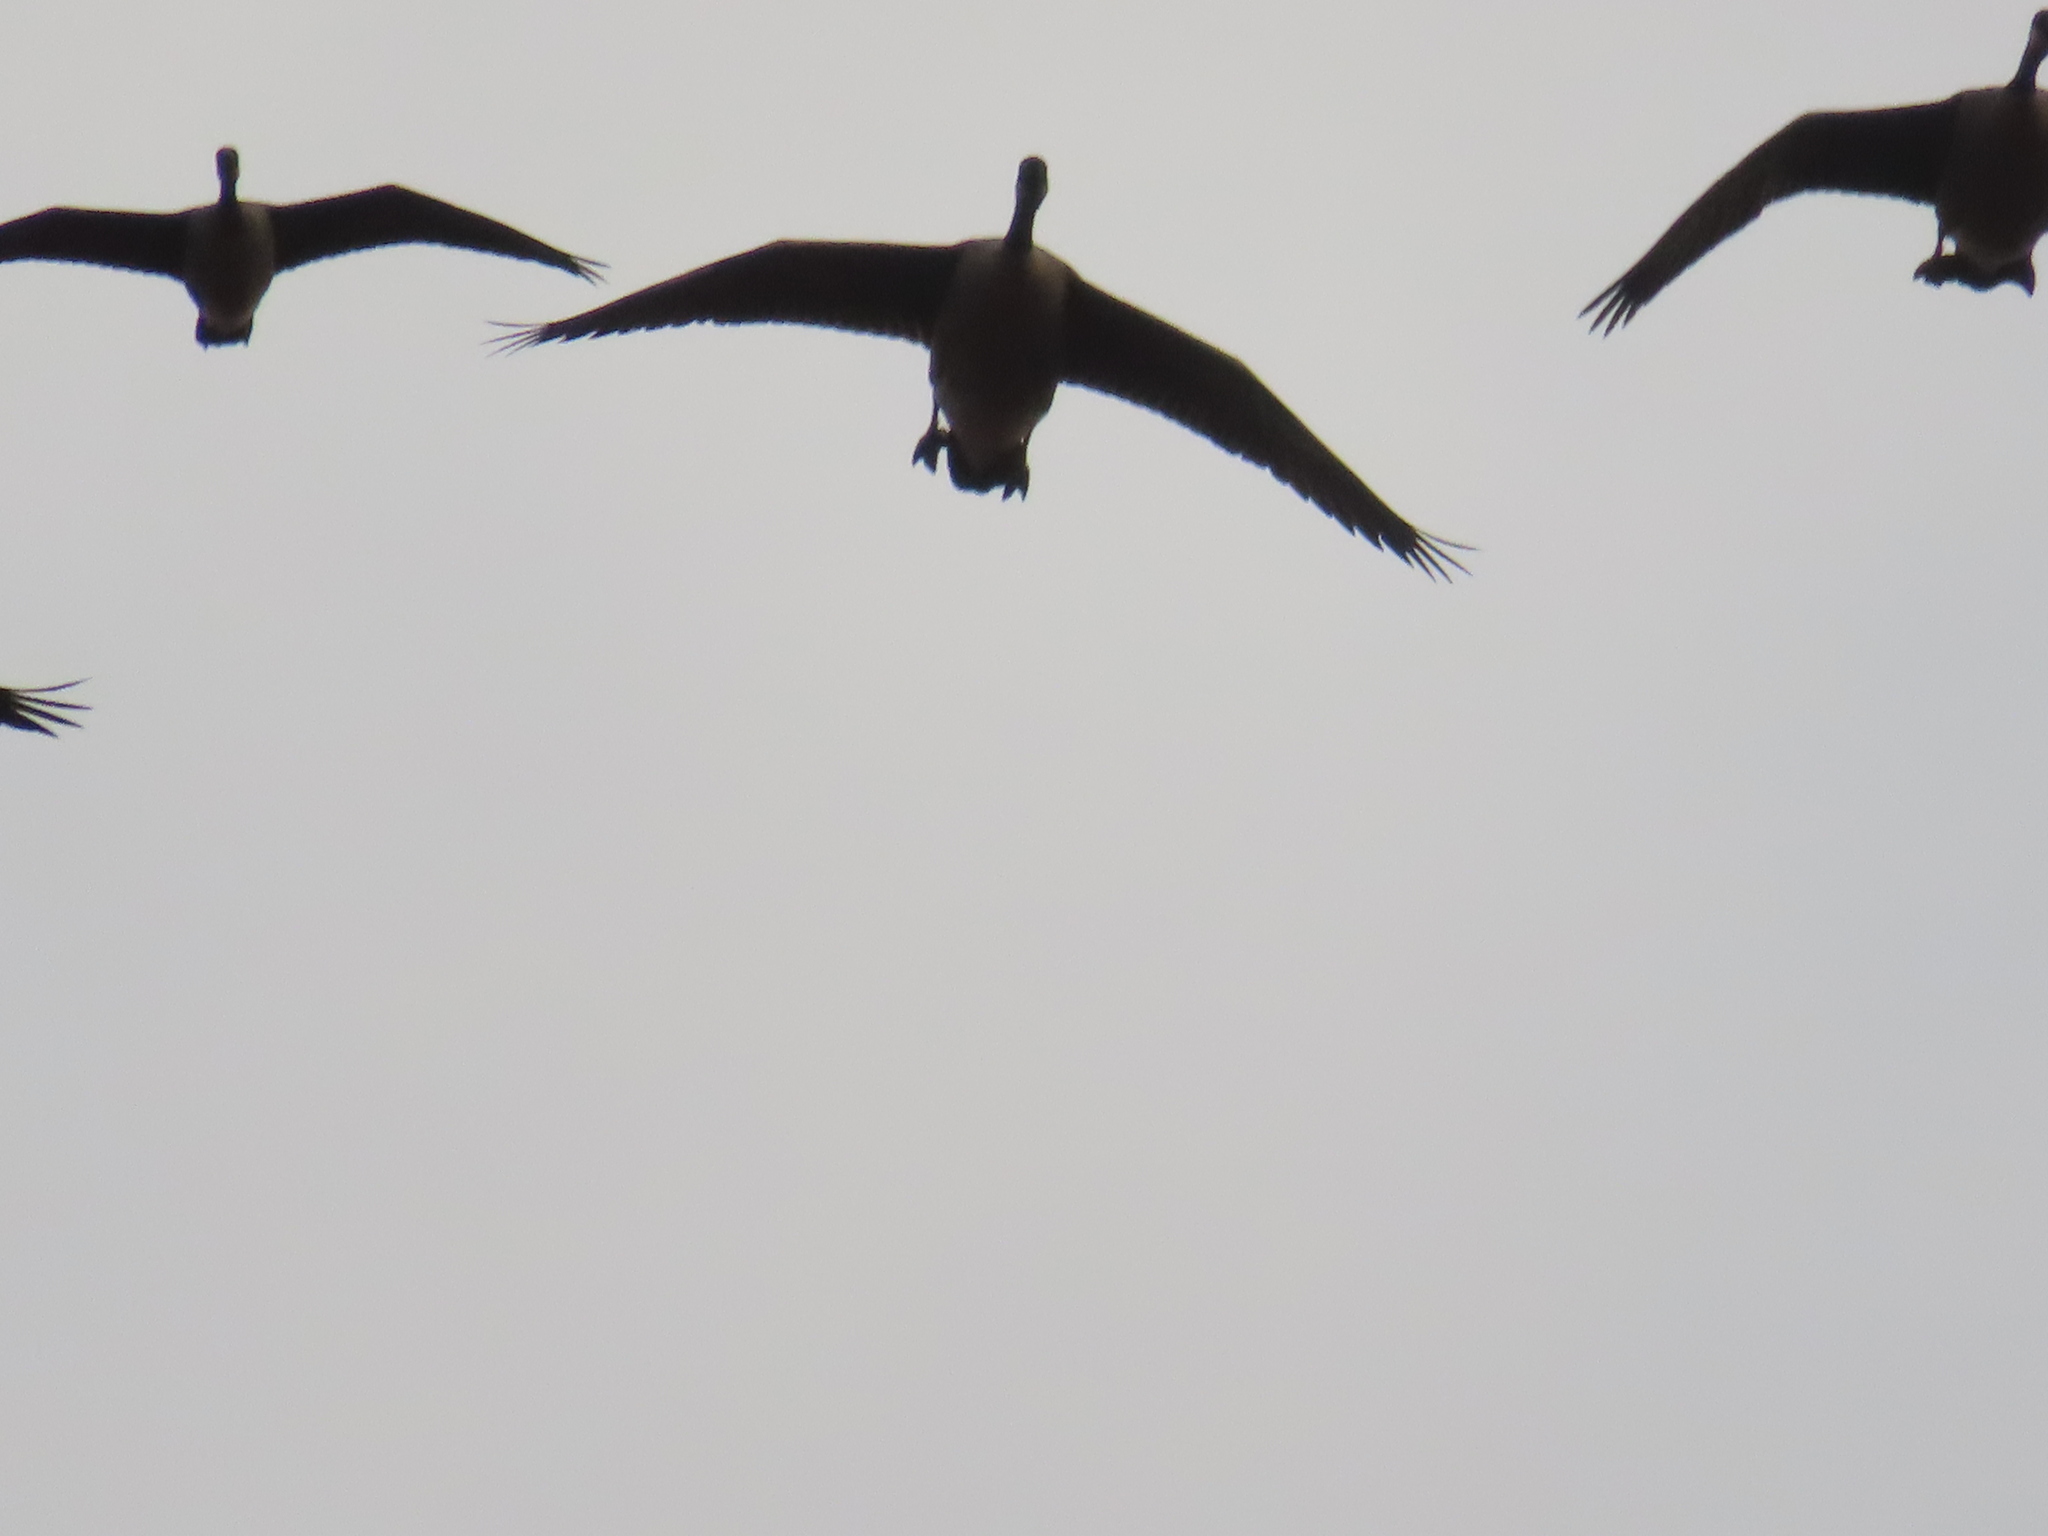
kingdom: Animalia
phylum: Chordata
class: Aves
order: Anseriformes
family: Anatidae
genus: Branta
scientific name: Branta canadensis
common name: Canada goose
